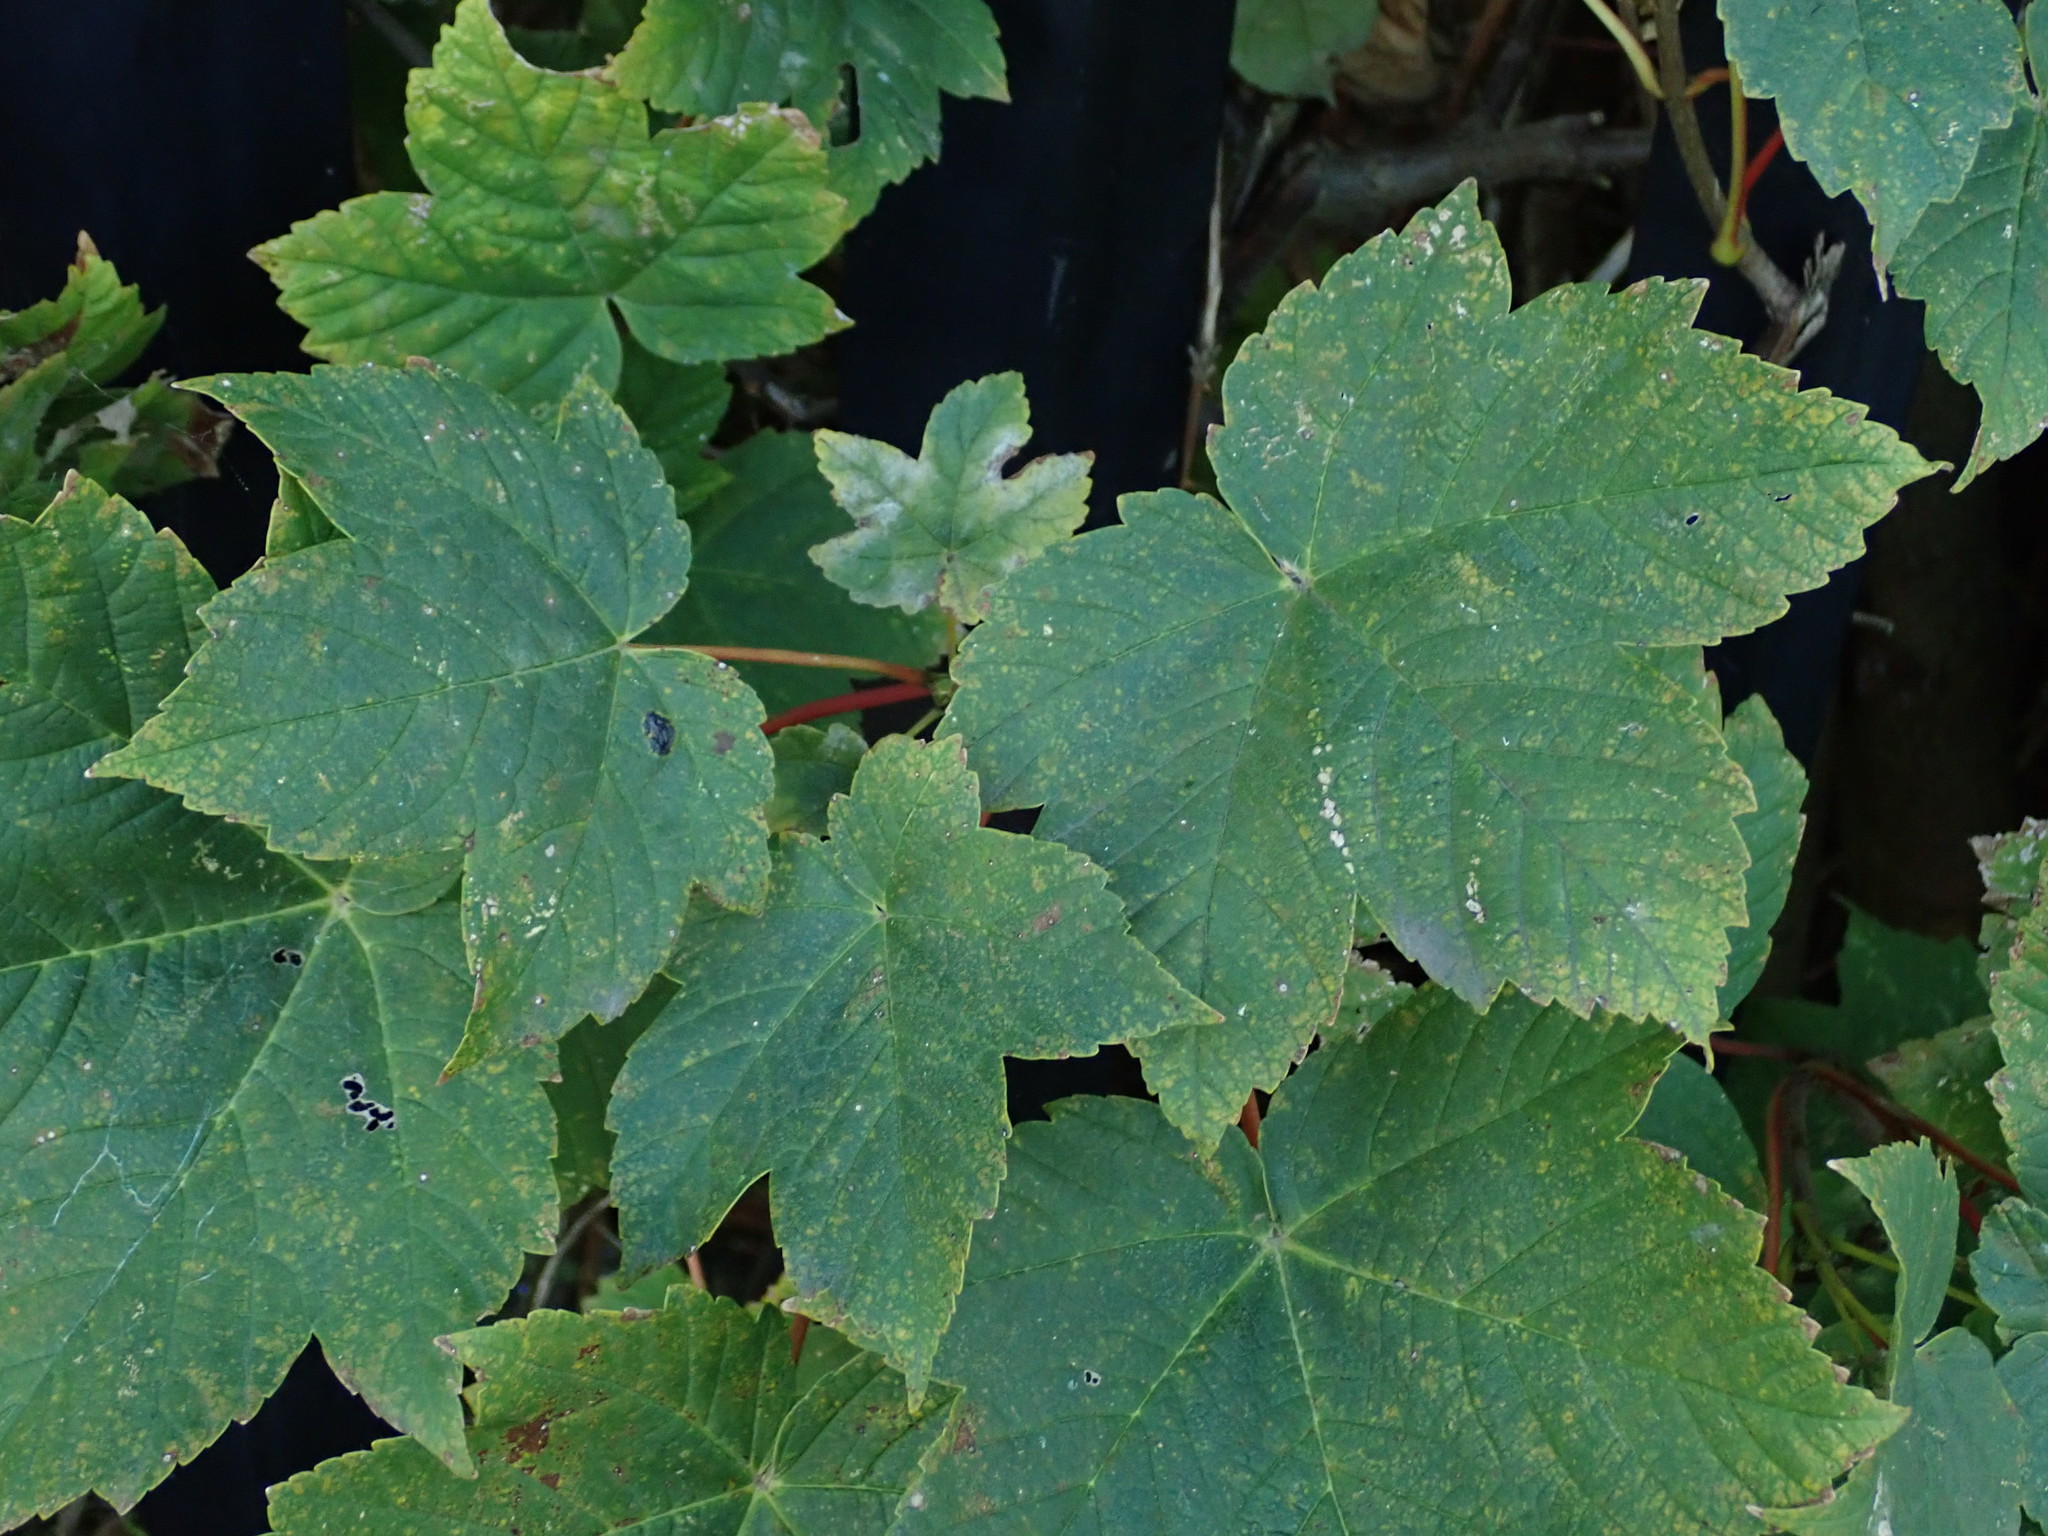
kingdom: Plantae
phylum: Tracheophyta
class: Magnoliopsida
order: Sapindales
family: Sapindaceae
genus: Acer
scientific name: Acer pseudoplatanus
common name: Sycamore
